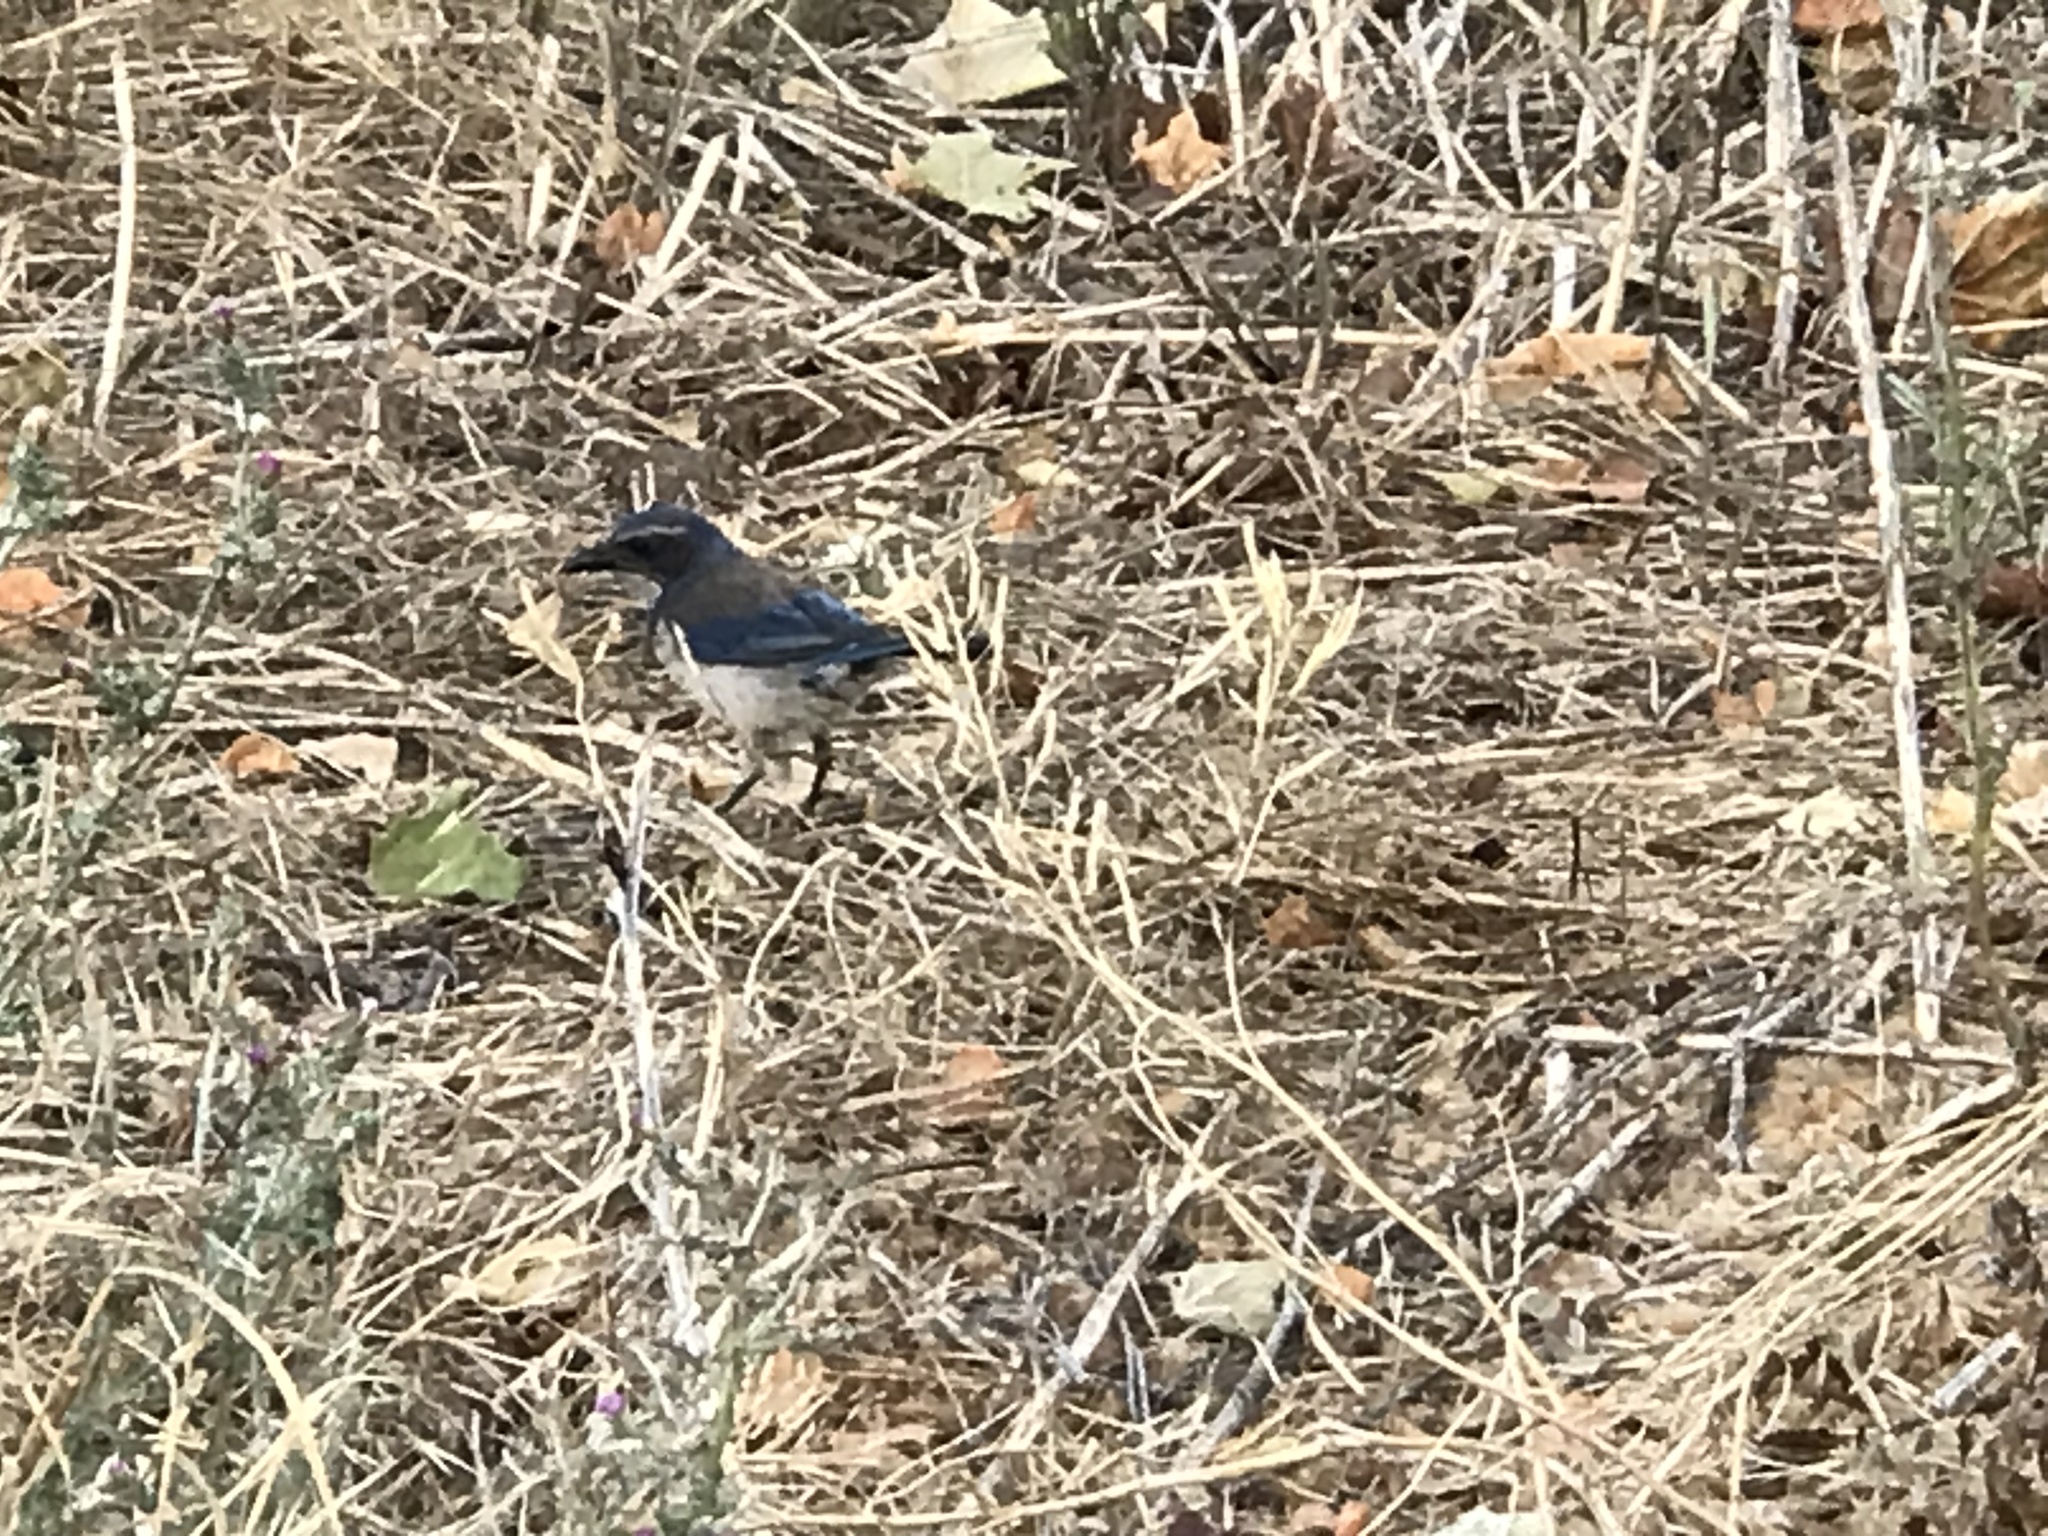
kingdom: Animalia
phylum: Chordata
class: Aves
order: Passeriformes
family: Corvidae
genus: Aphelocoma
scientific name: Aphelocoma californica
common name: California scrub-jay
